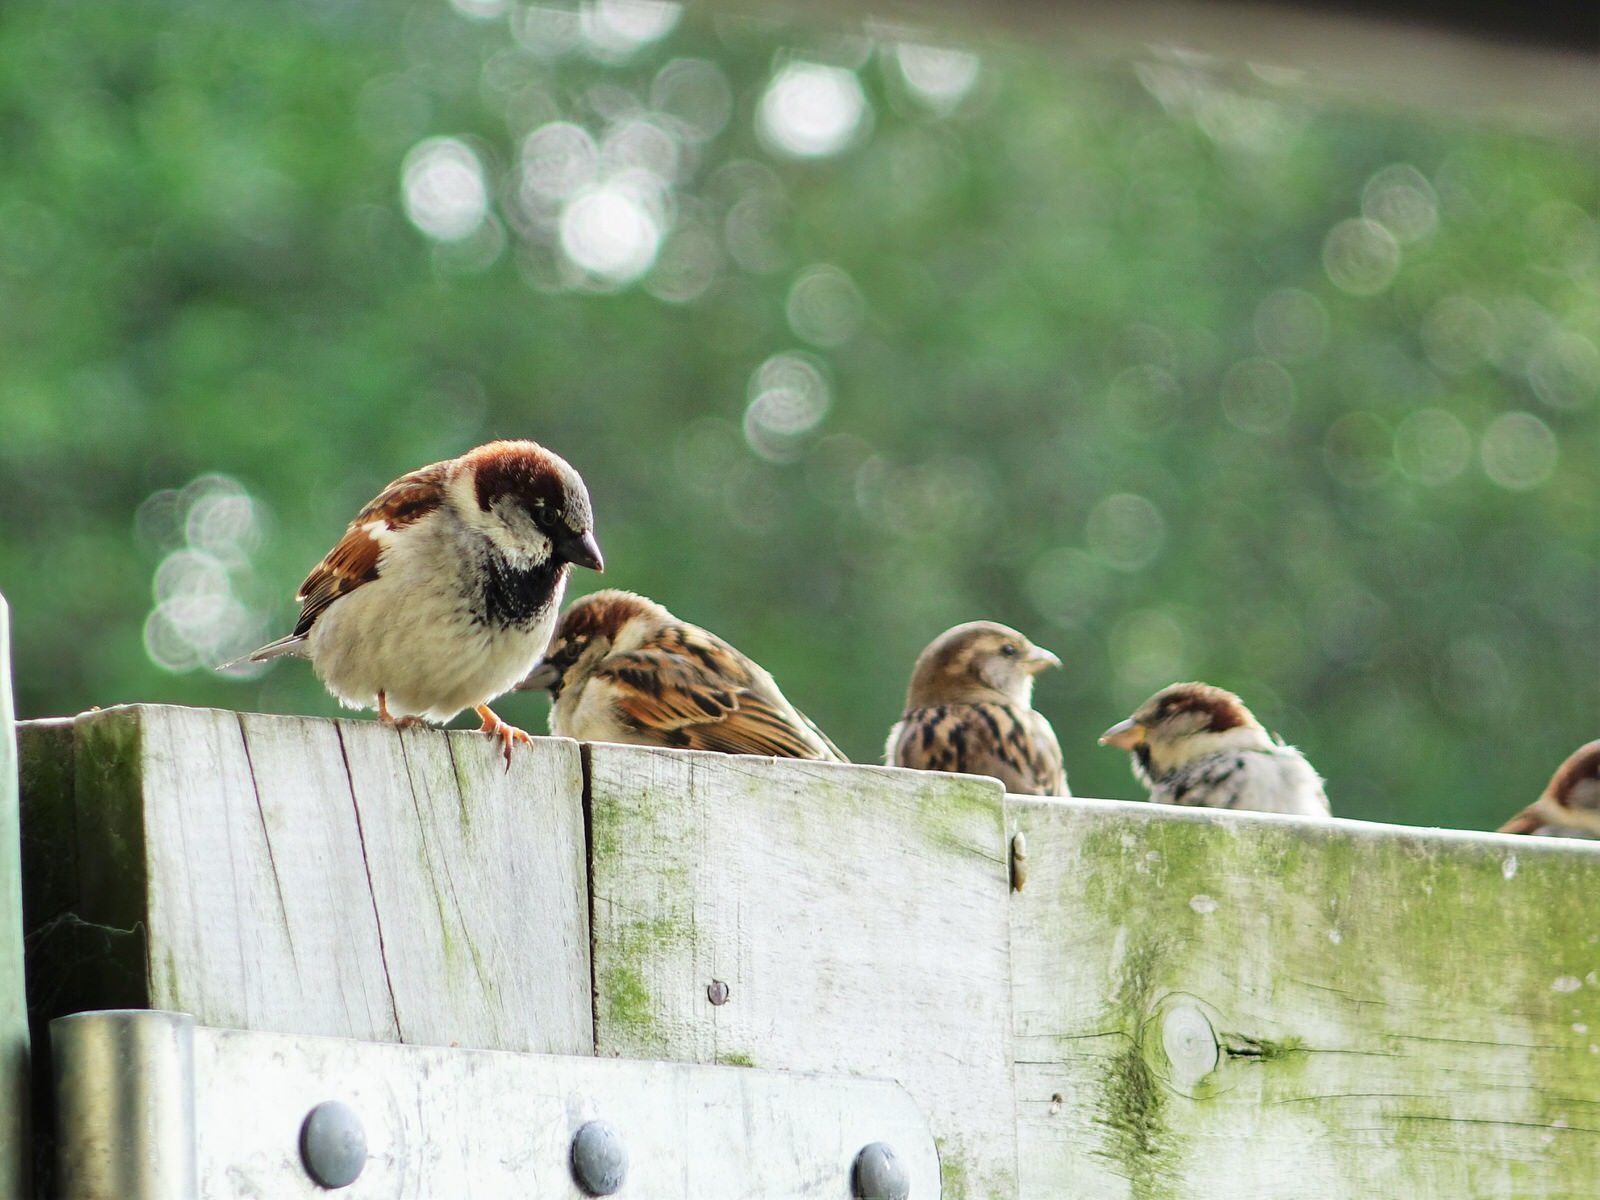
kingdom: Animalia
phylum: Chordata
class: Aves
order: Passeriformes
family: Passeridae
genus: Passer
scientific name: Passer domesticus
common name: House sparrow
